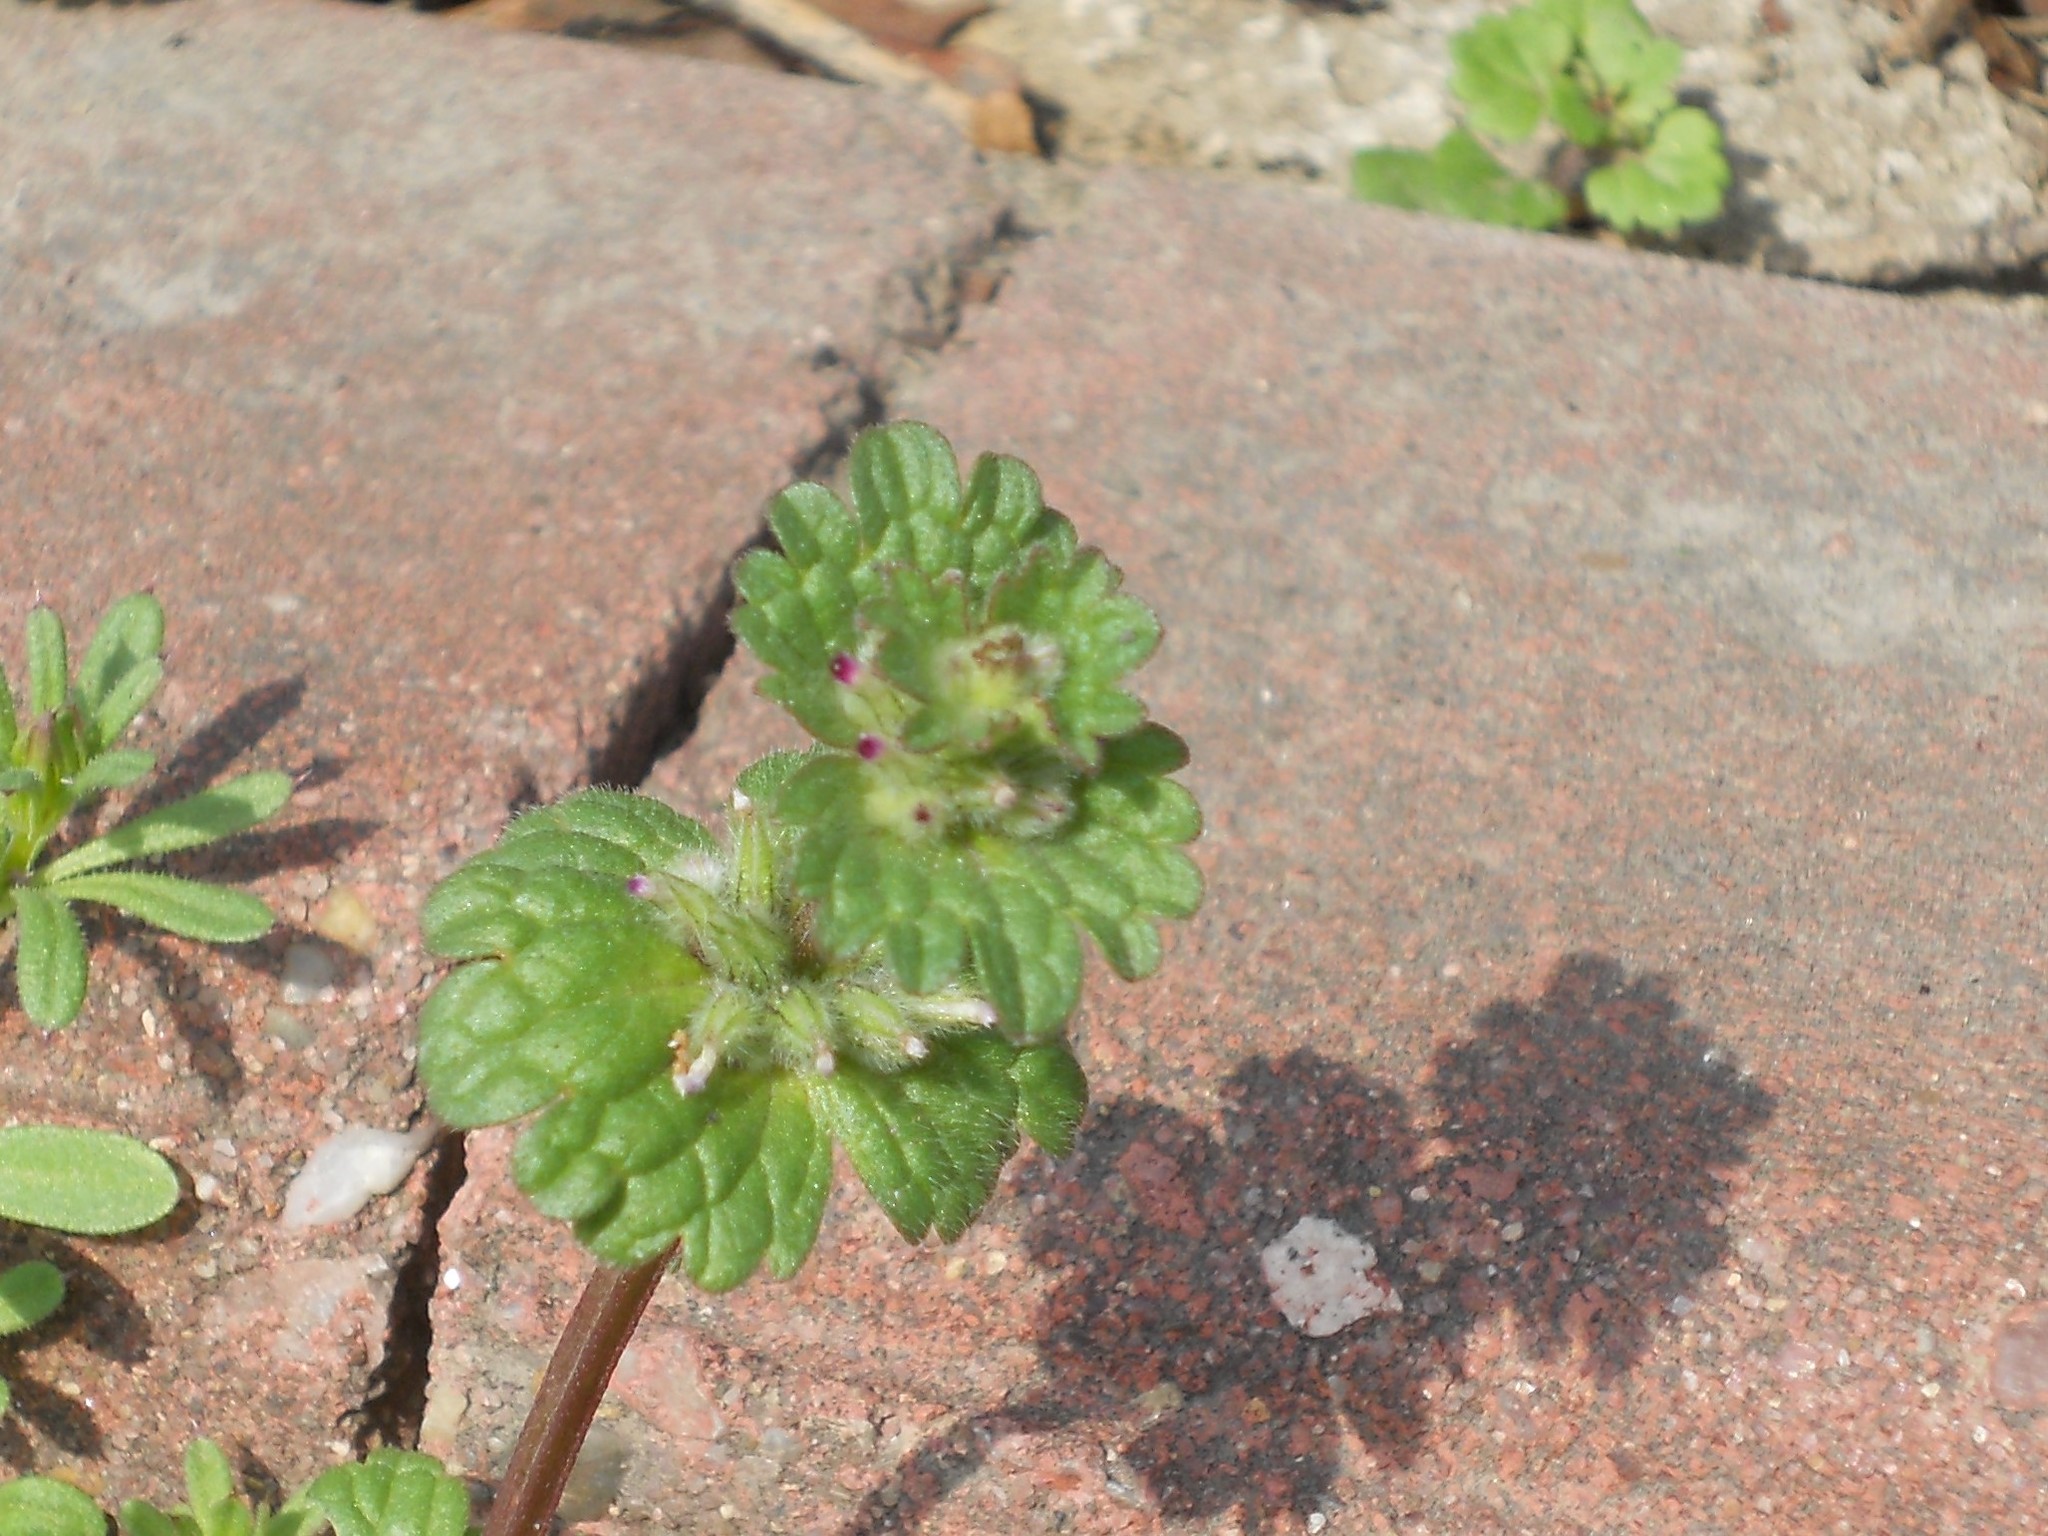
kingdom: Plantae
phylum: Tracheophyta
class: Magnoliopsida
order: Lamiales
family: Lamiaceae
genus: Lamium
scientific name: Lamium amplexicaule
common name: Henbit dead-nettle
